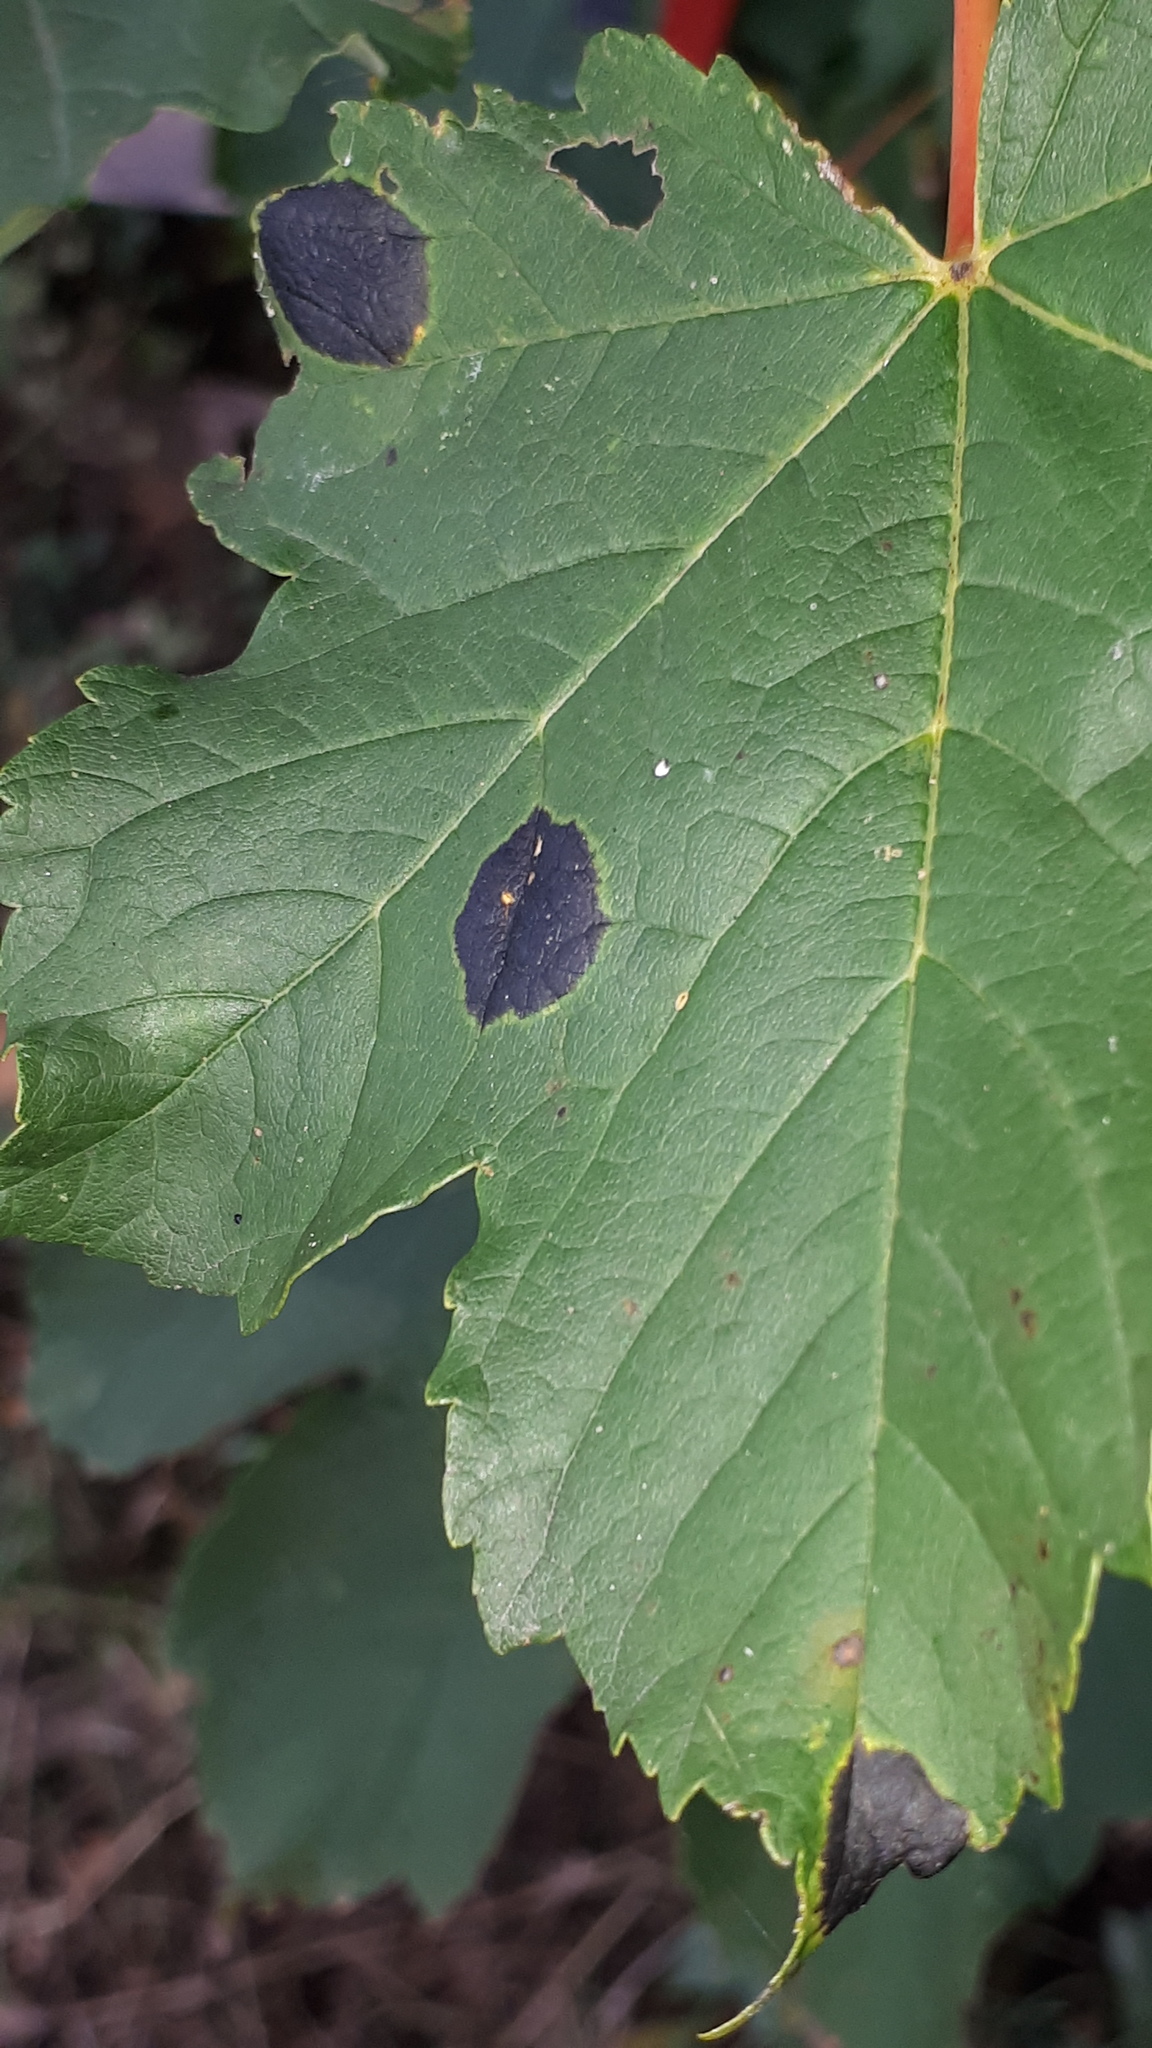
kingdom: Fungi
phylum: Ascomycota
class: Leotiomycetes
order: Rhytismatales
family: Rhytismataceae
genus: Rhytisma
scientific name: Rhytisma acerinum
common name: European tar spot
